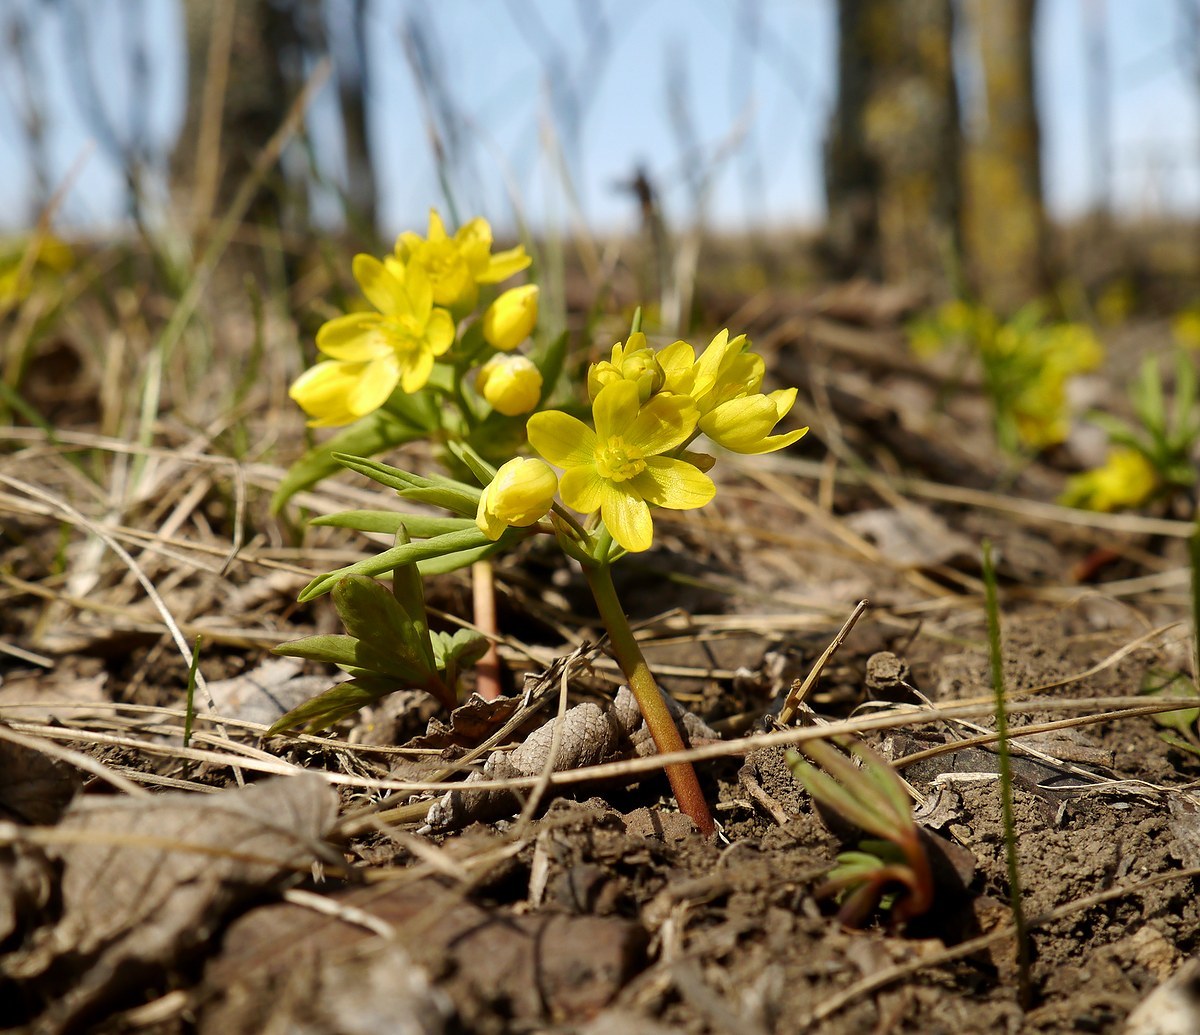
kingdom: Plantae
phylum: Tracheophyta
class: Magnoliopsida
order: Ranunculales
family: Berberidaceae
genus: Gymnospermium
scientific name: Gymnospermium odessanum
